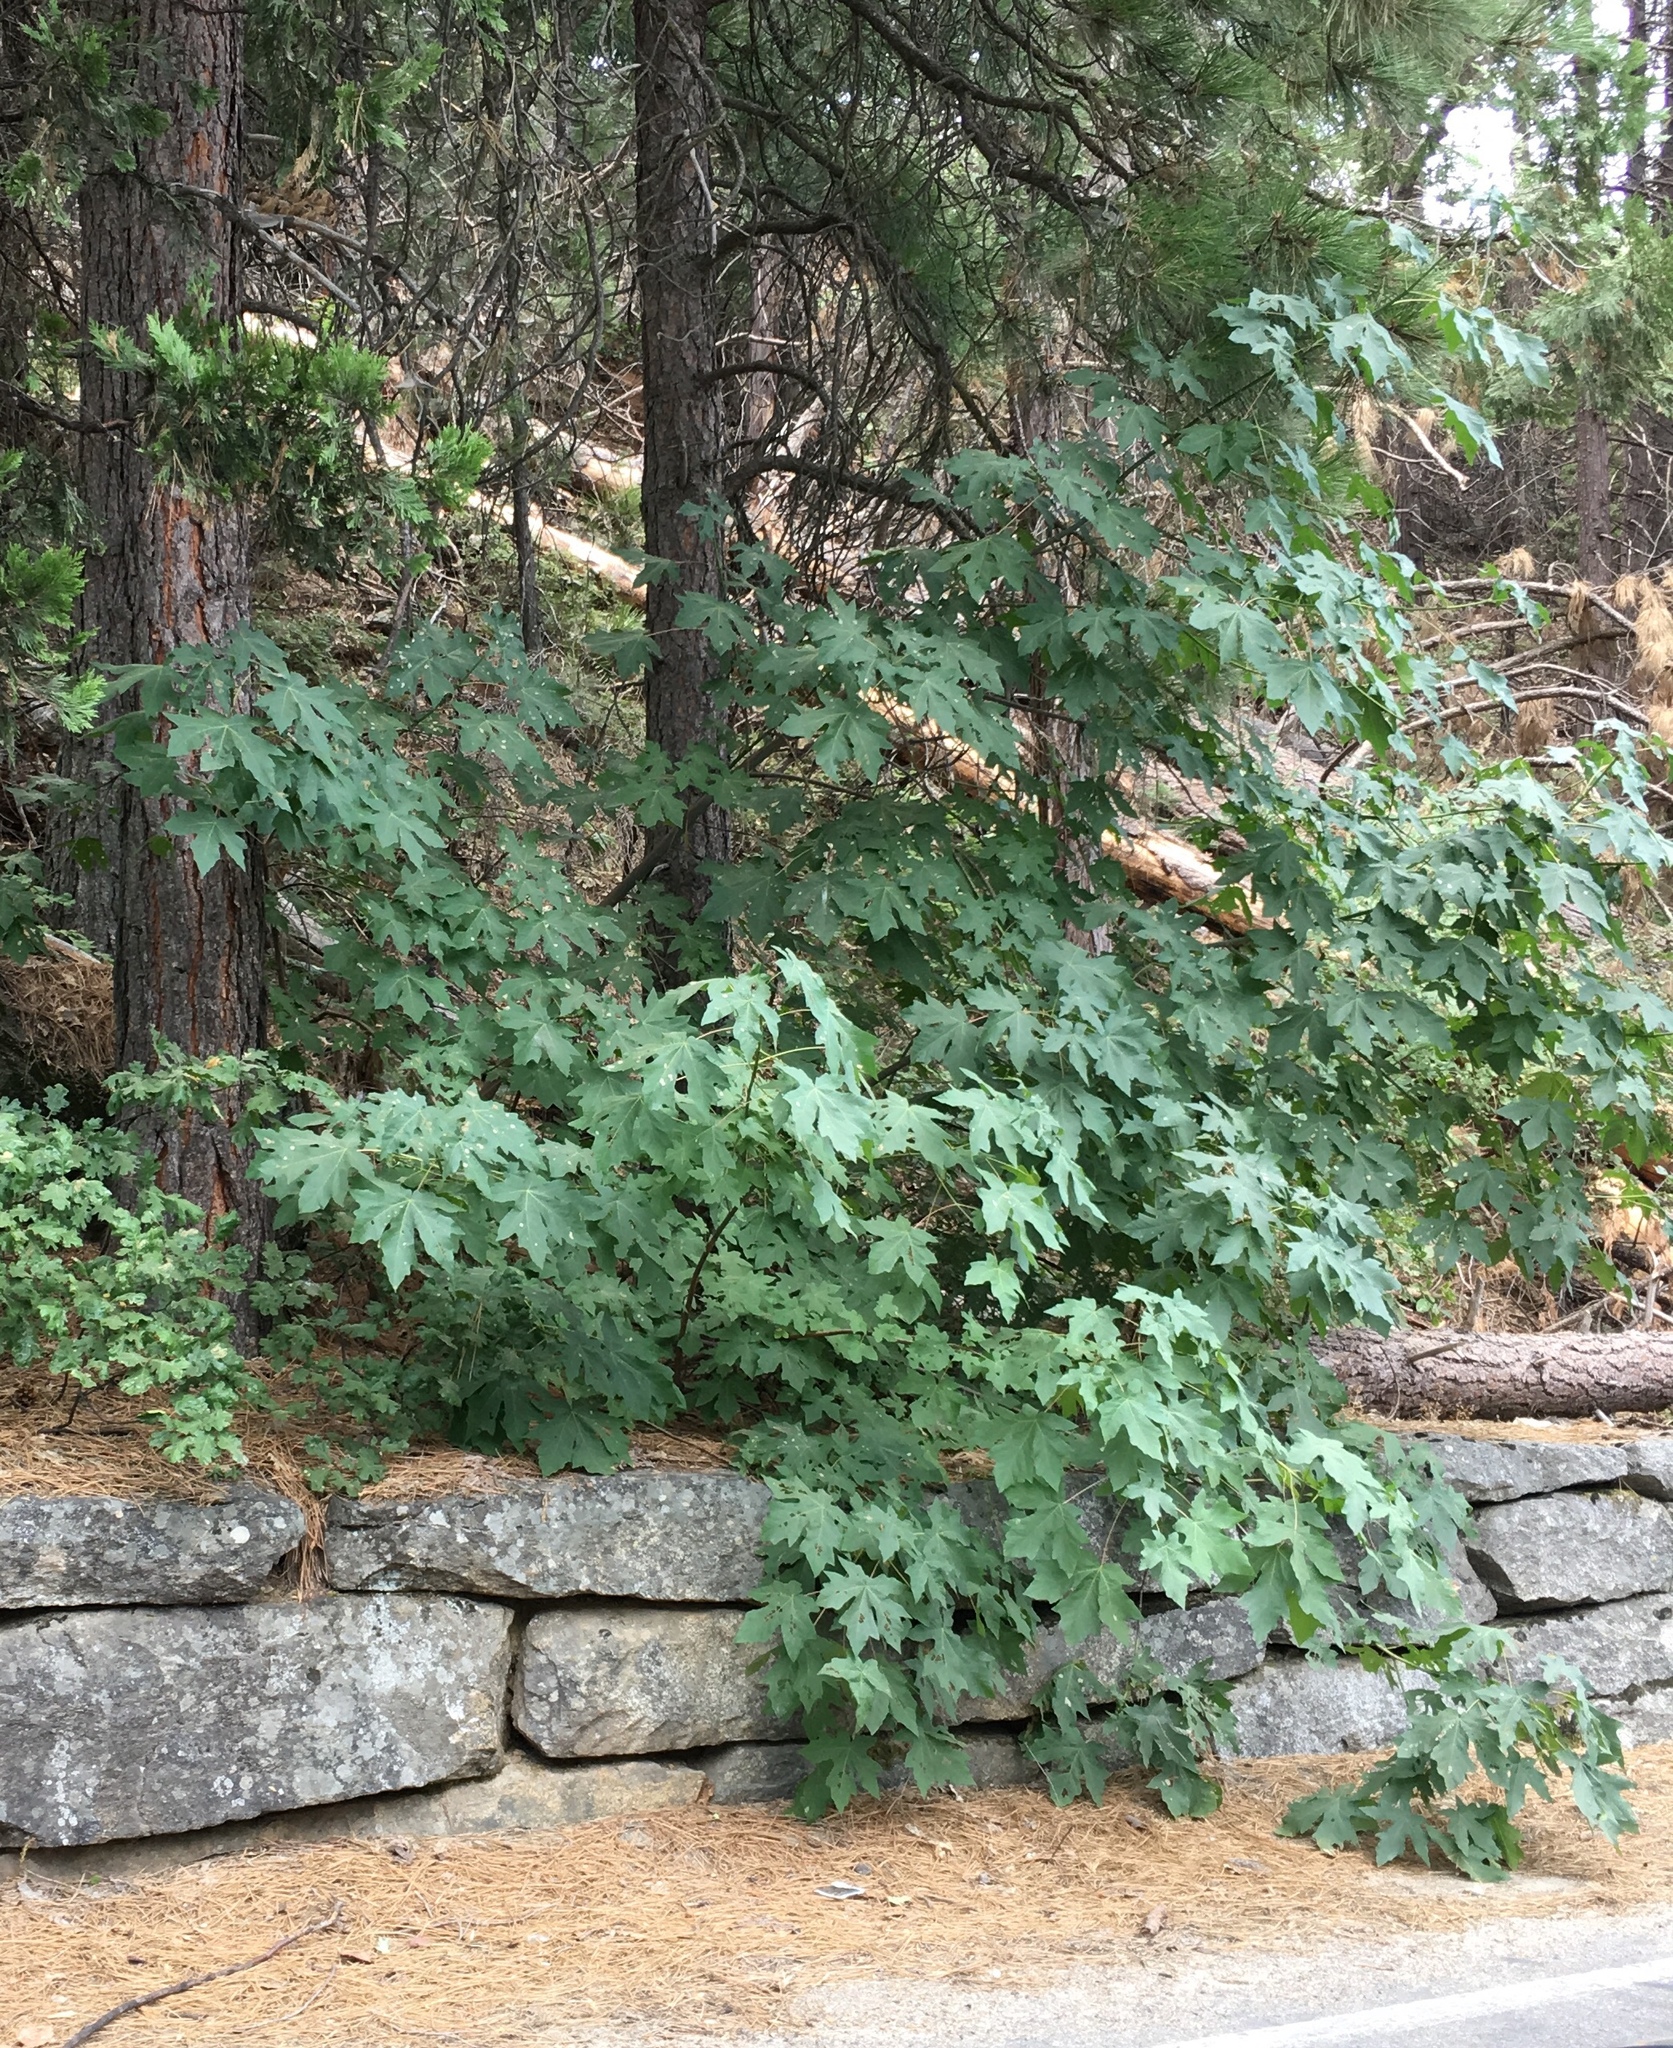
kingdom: Plantae
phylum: Tracheophyta
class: Magnoliopsida
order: Sapindales
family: Sapindaceae
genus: Acer
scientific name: Acer macrophyllum
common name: Oregon maple
